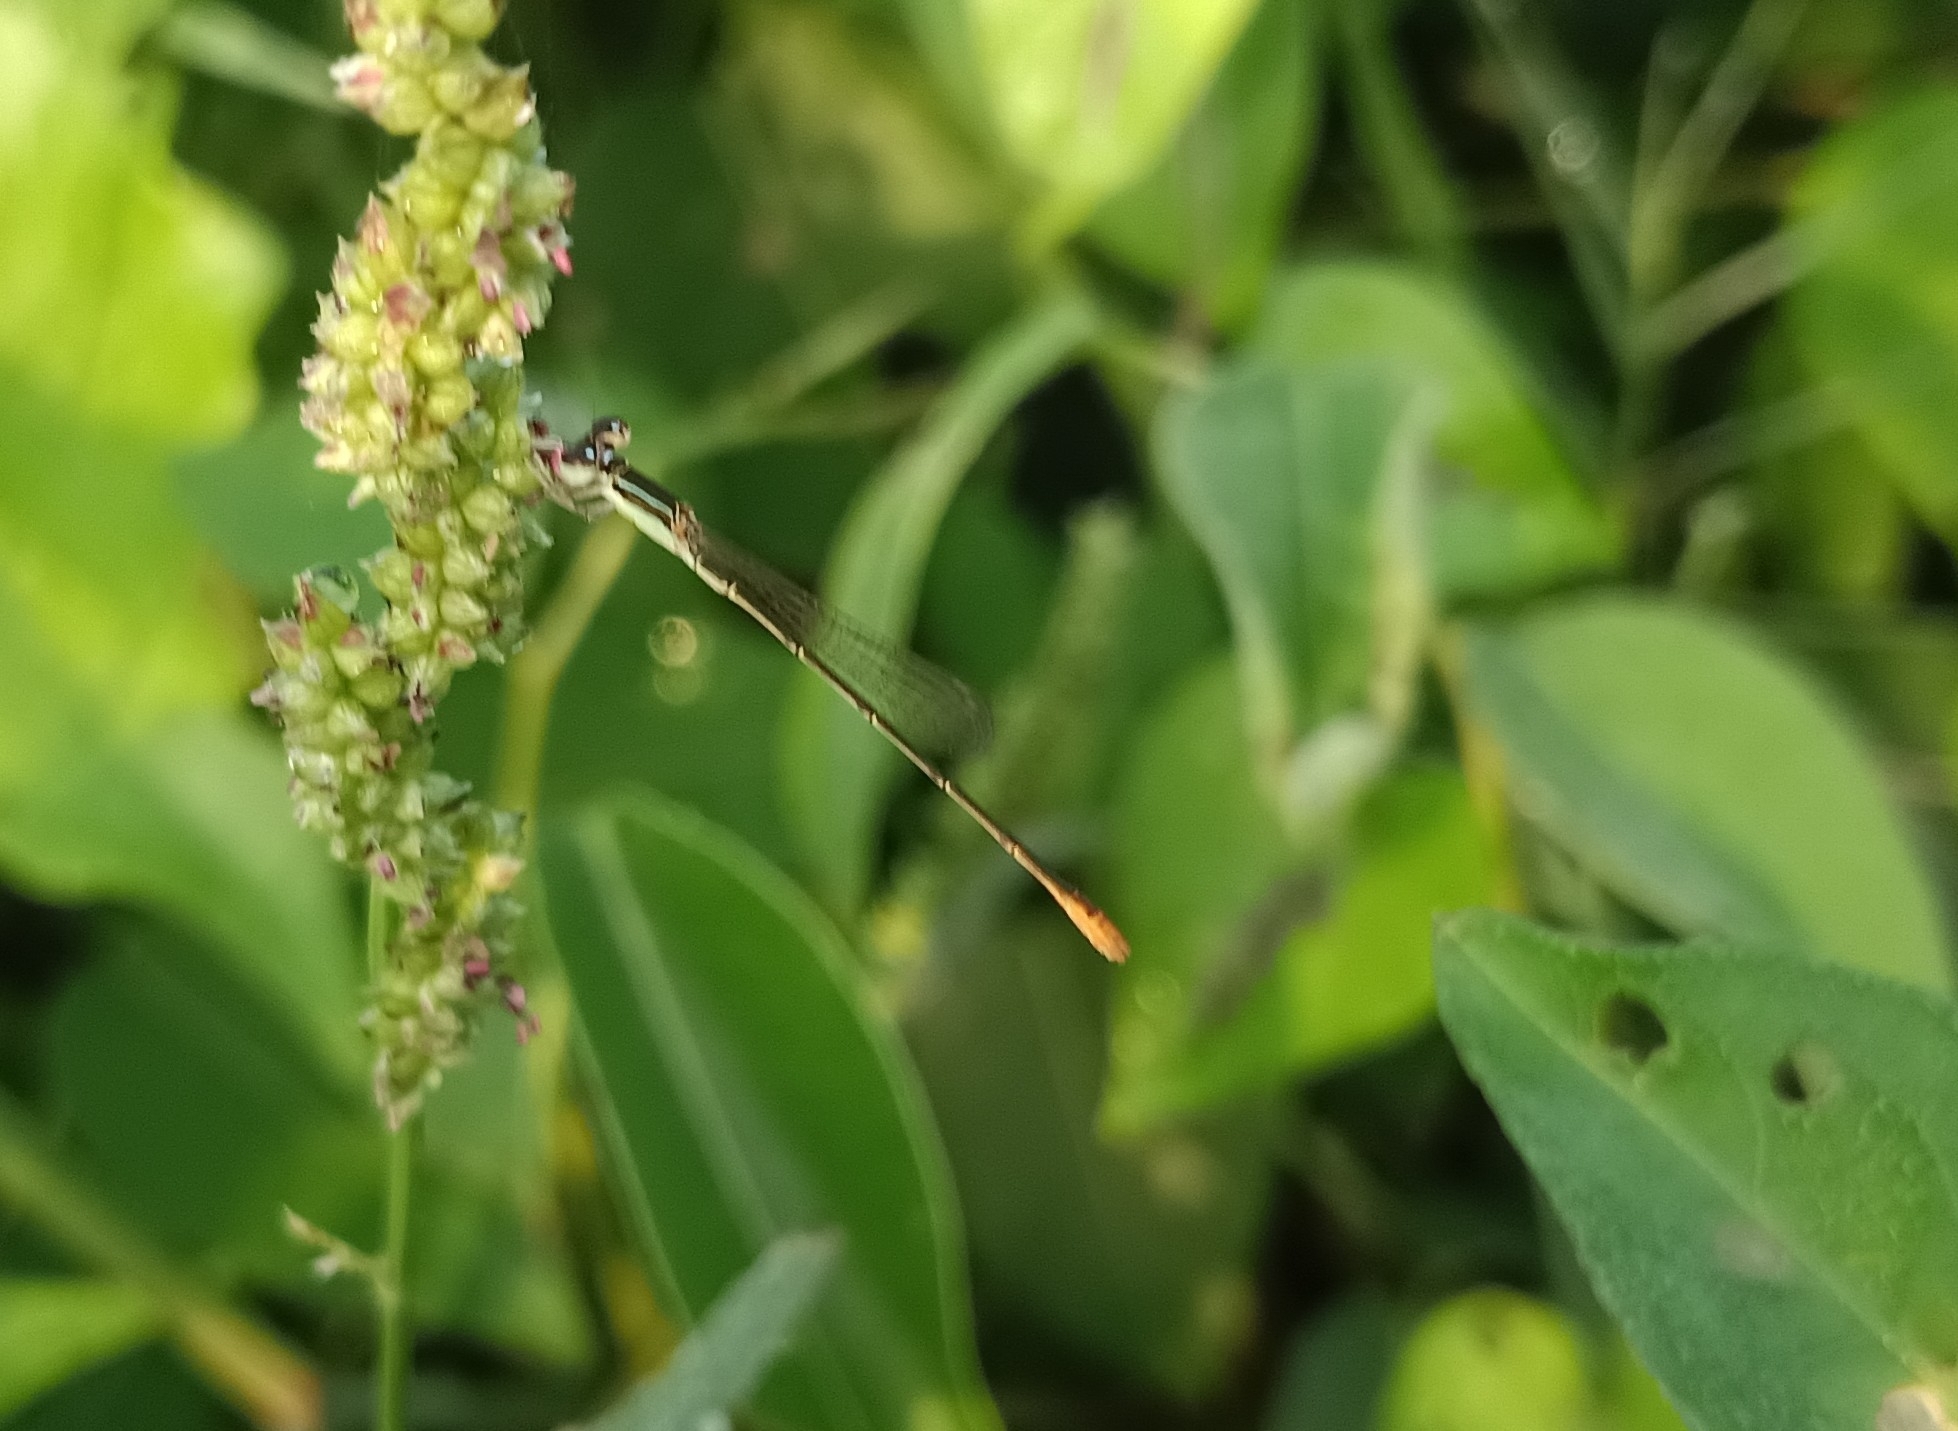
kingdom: Animalia
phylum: Arthropoda
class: Insecta
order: Odonata
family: Coenagrionidae
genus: Agriocnemis
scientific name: Agriocnemis pygmaea
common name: Pygmy wisp
